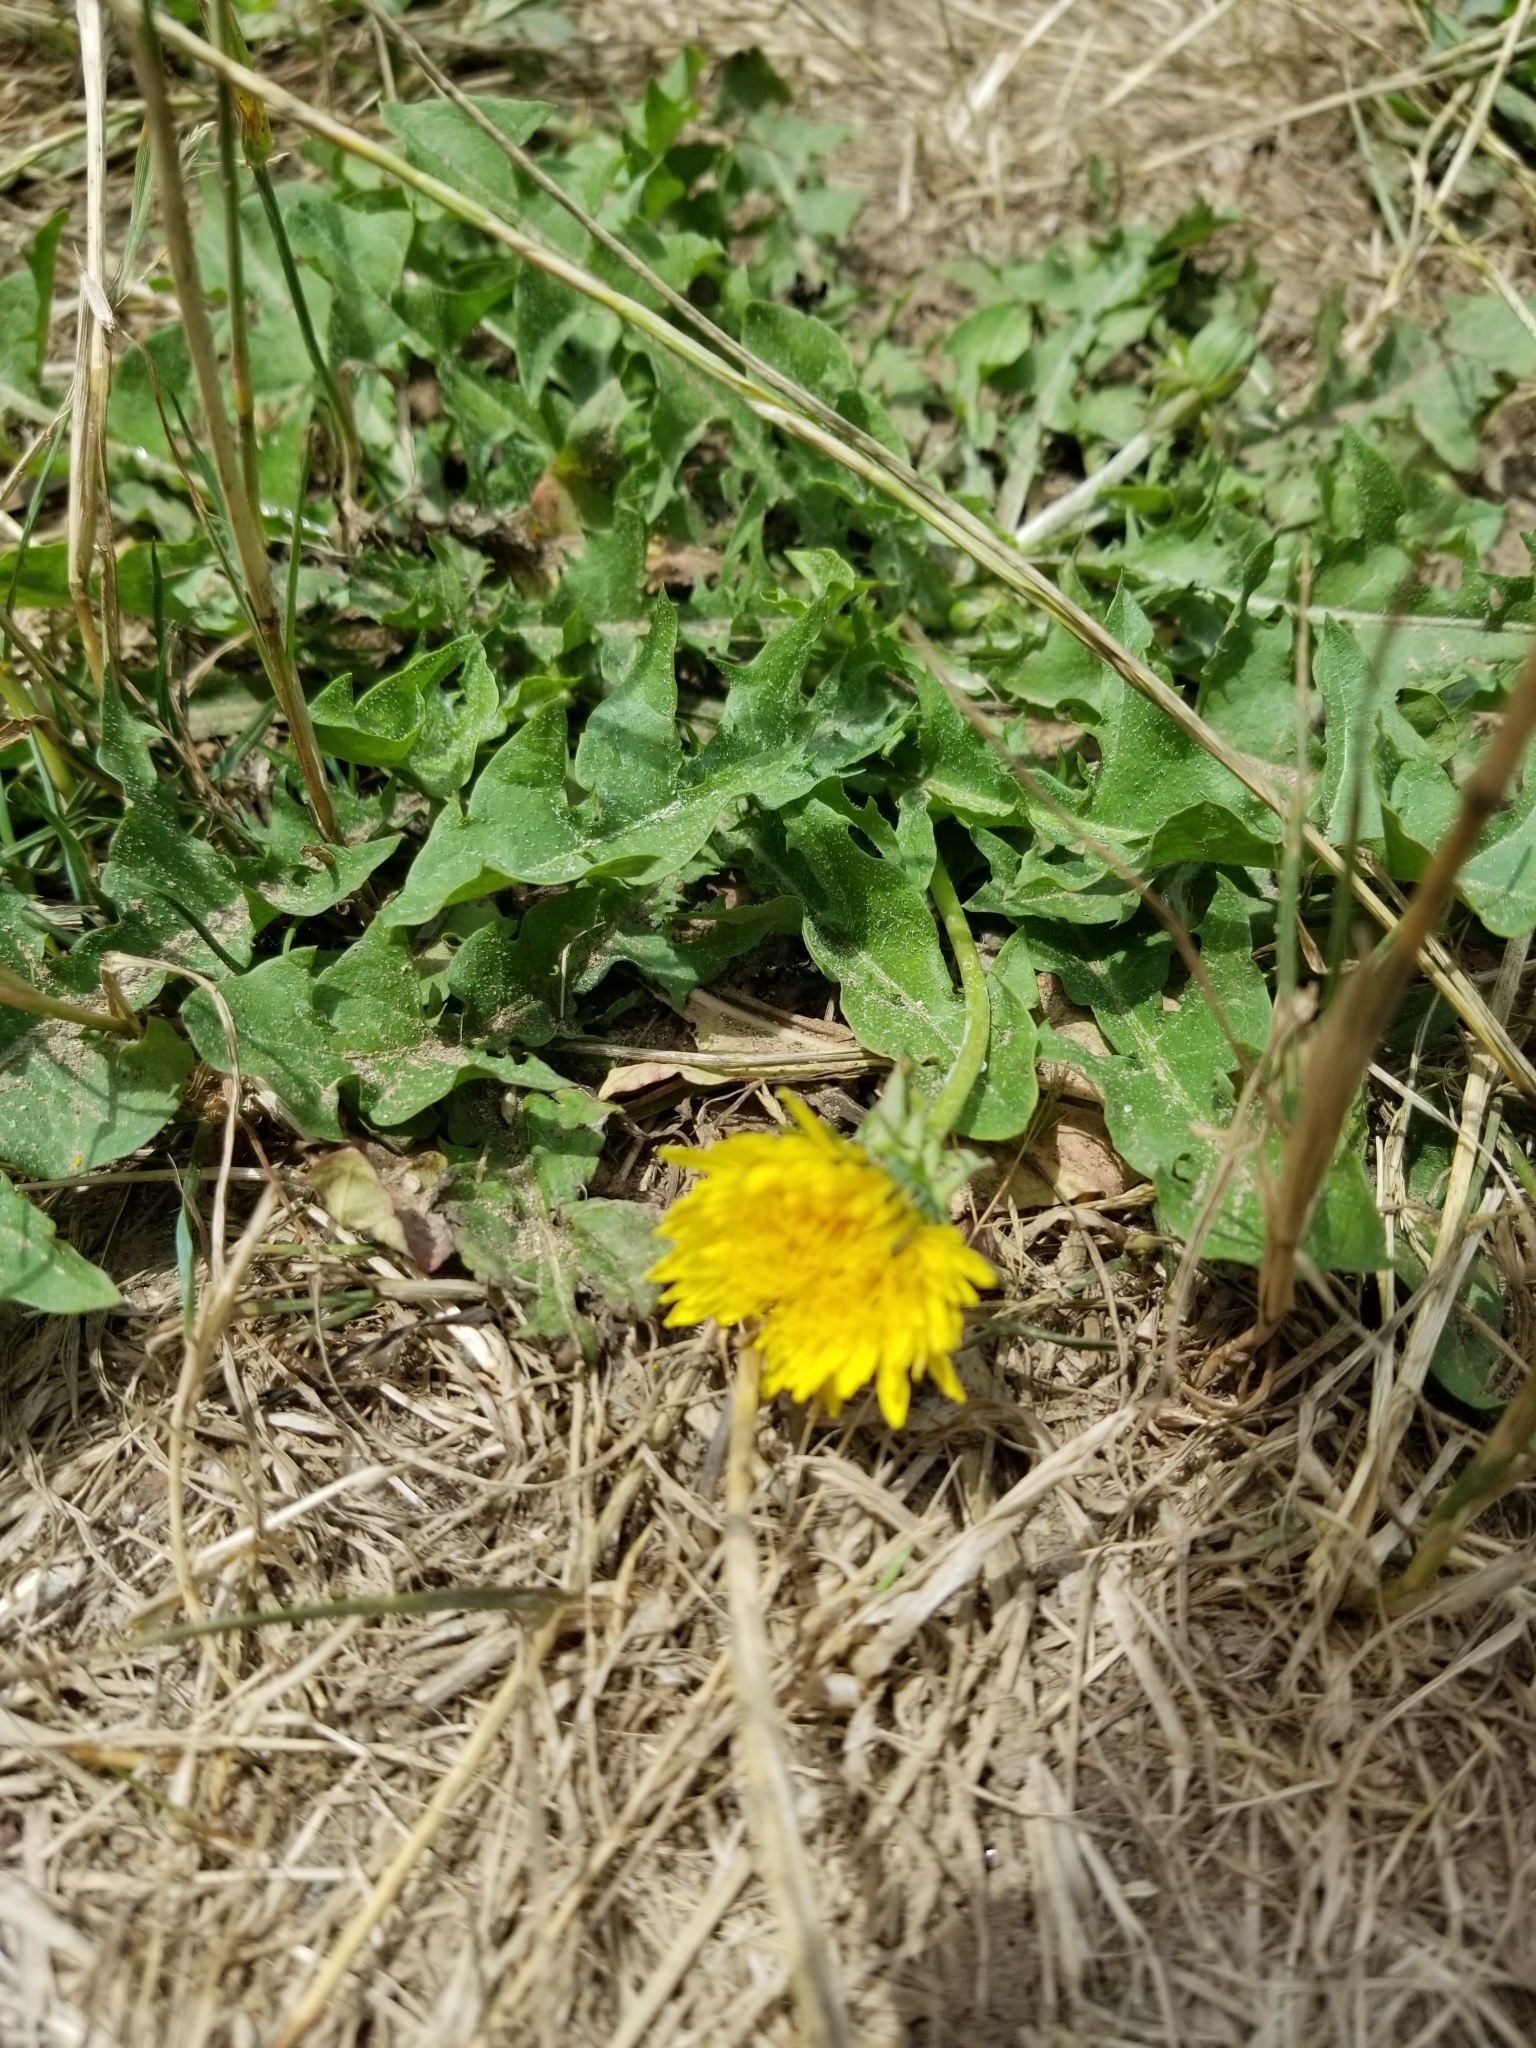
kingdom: Plantae
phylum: Tracheophyta
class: Magnoliopsida
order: Asterales
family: Asteraceae
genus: Taraxacum
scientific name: Taraxacum officinale
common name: Common dandelion
